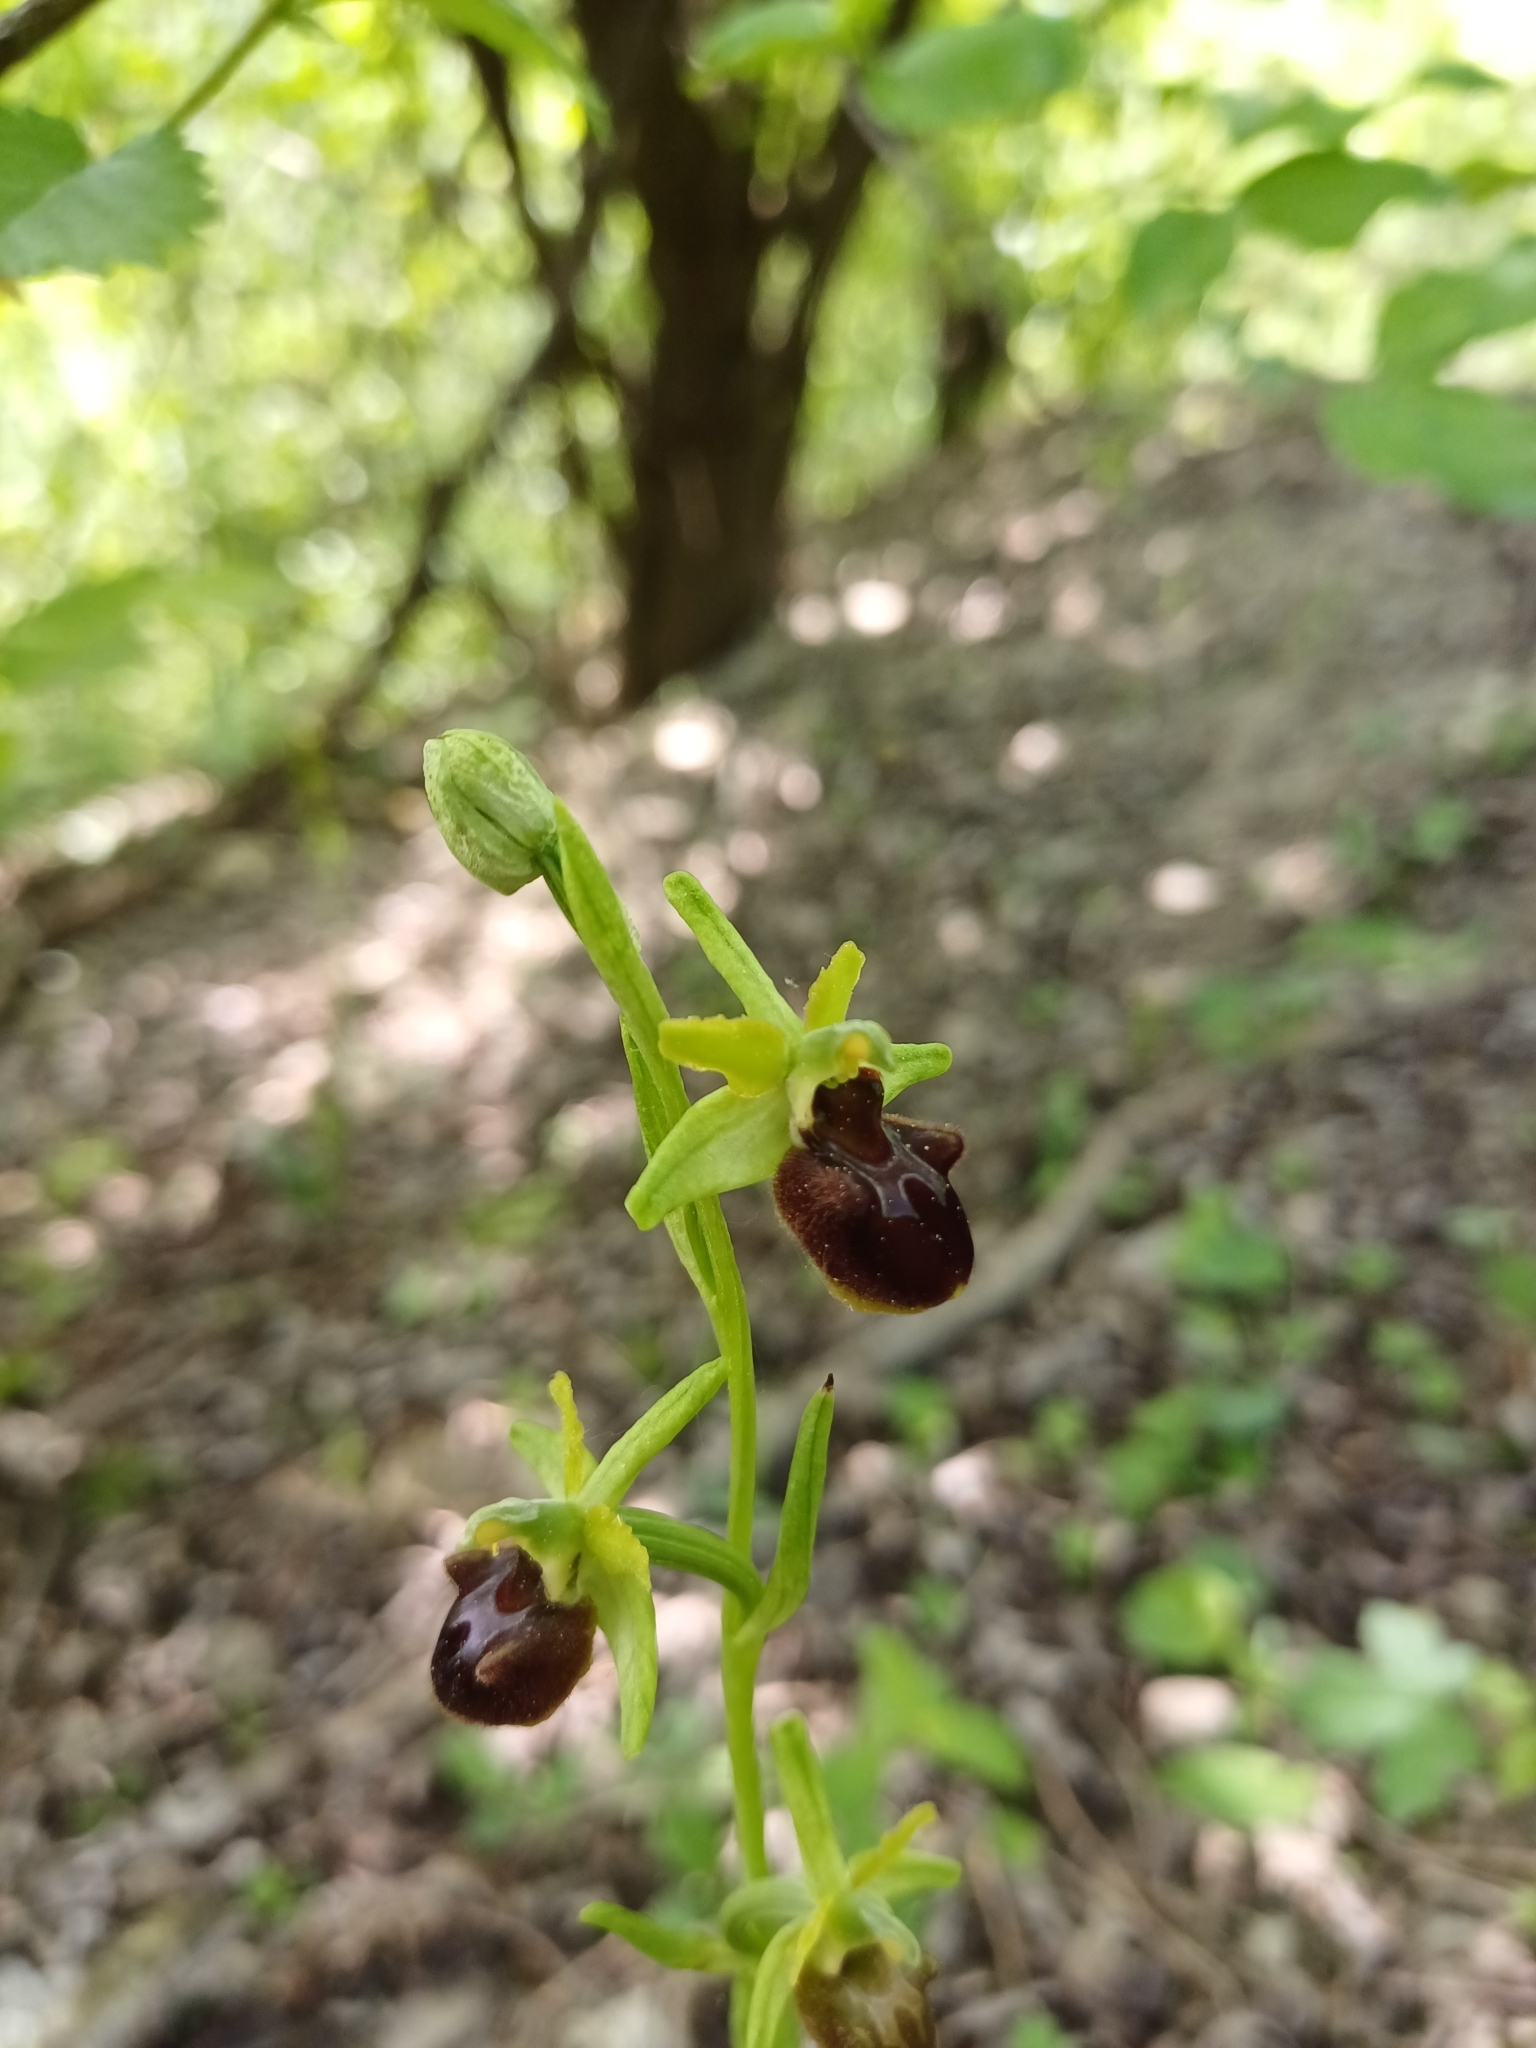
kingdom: Plantae
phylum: Tracheophyta
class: Liliopsida
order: Asparagales
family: Orchidaceae
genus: Ophrys
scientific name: Ophrys sphegodes
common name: Early spider-orchid
